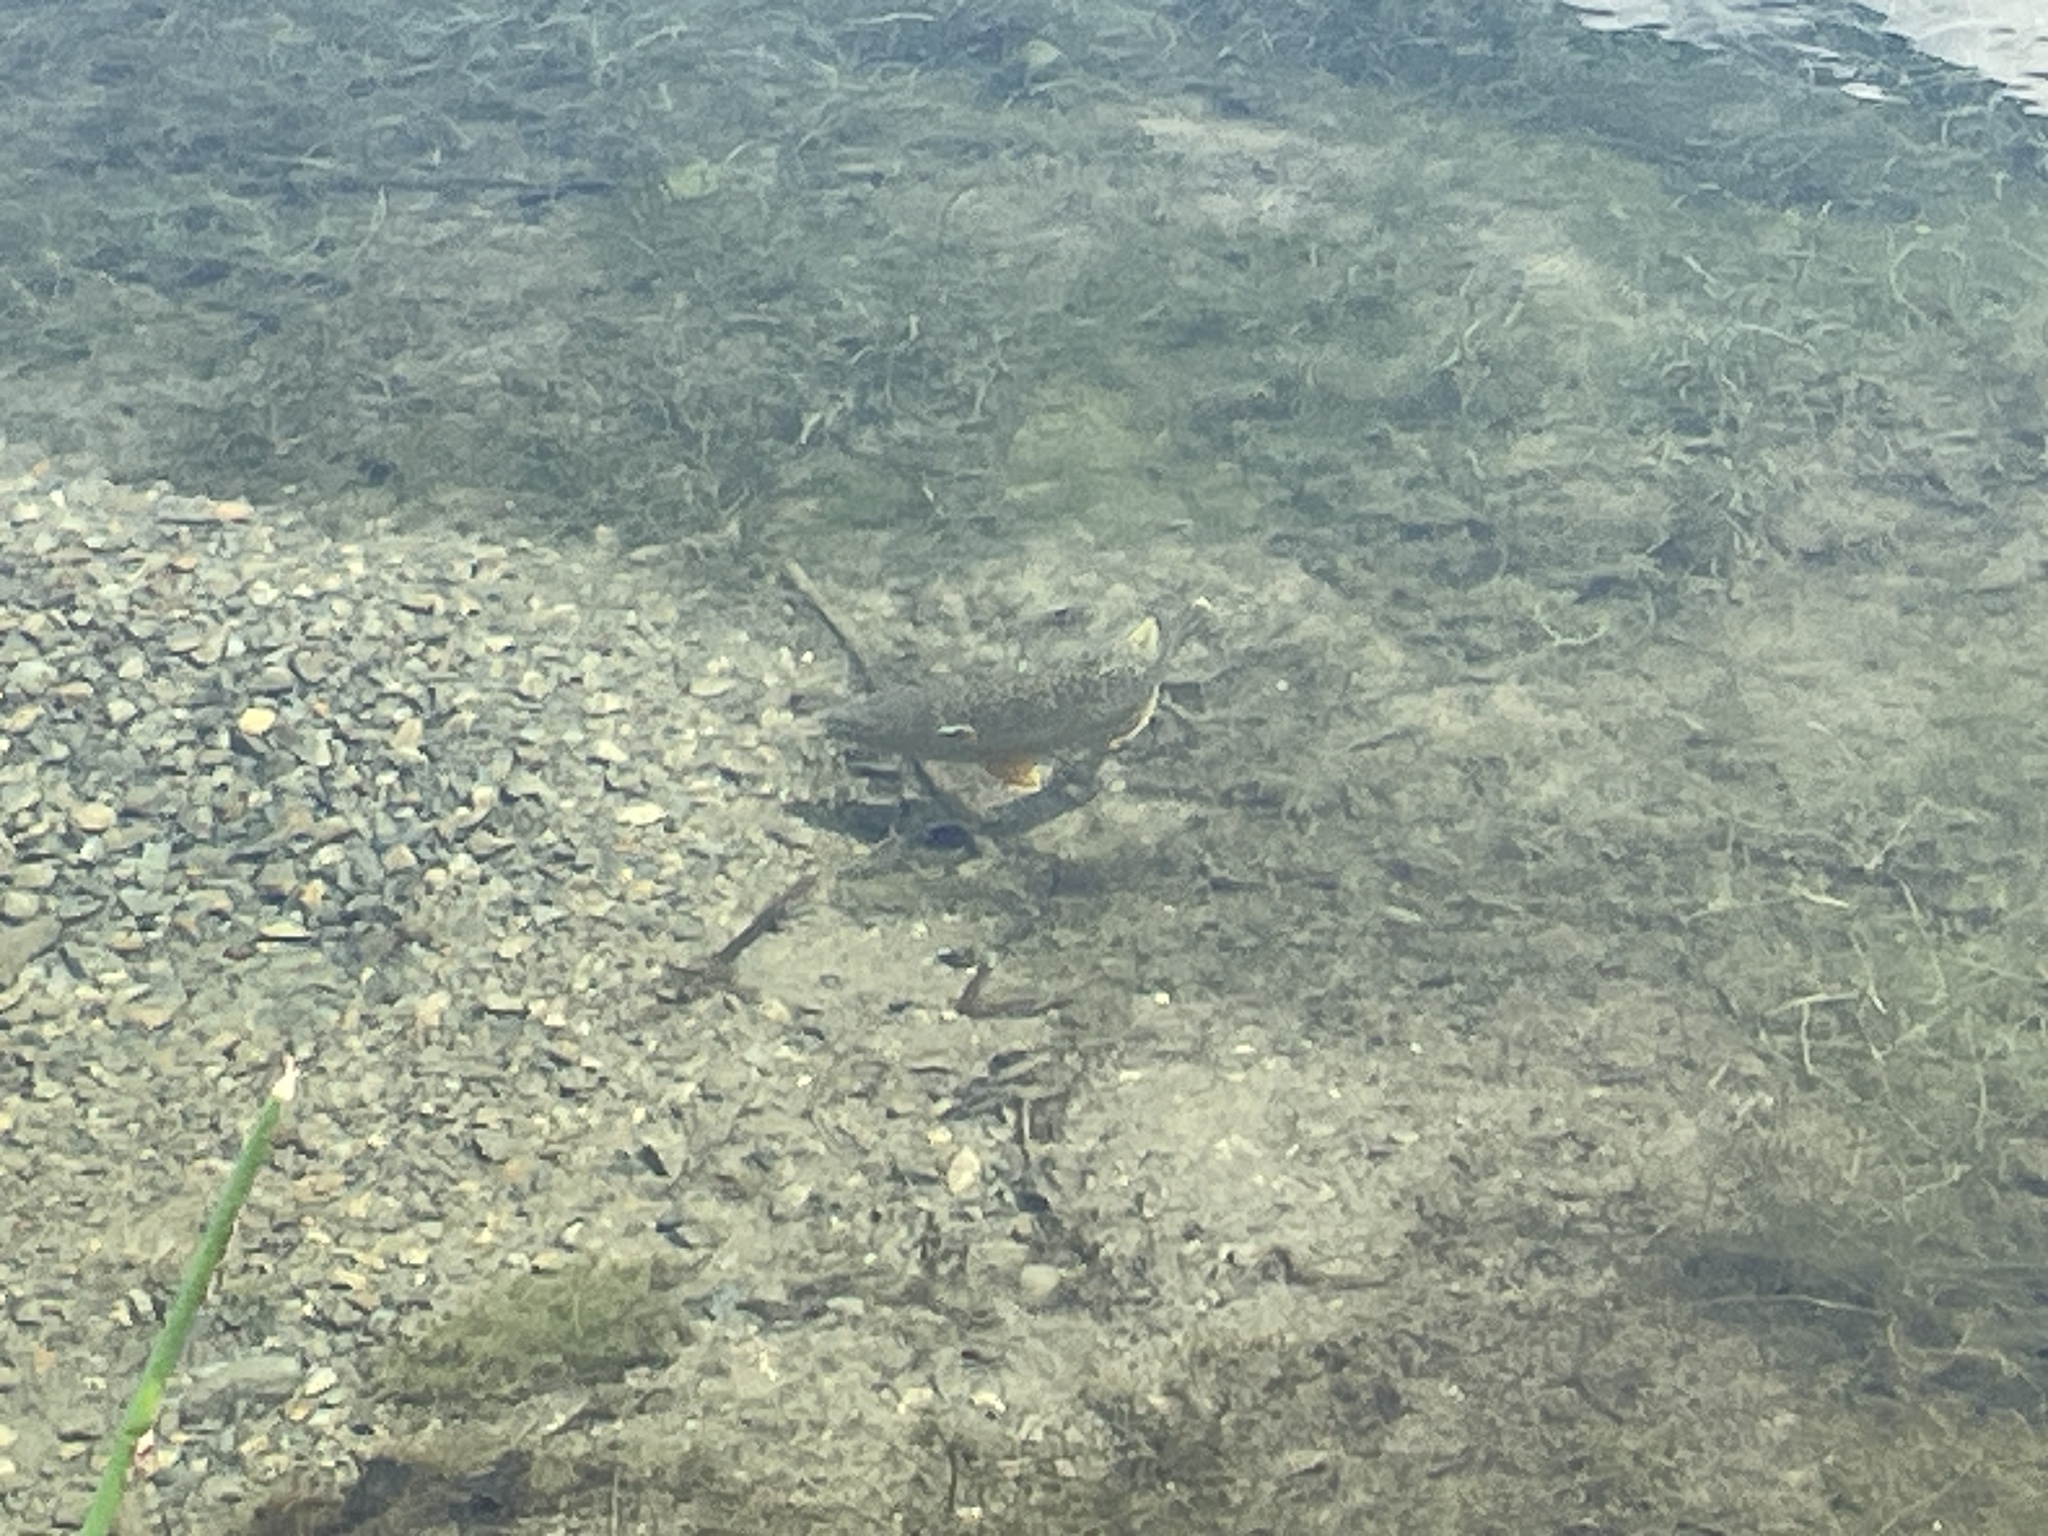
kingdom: Animalia
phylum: Chordata
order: Perciformes
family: Centrarchidae
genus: Lepomis
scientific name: Lepomis gibbosus
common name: Pumpkinseed
